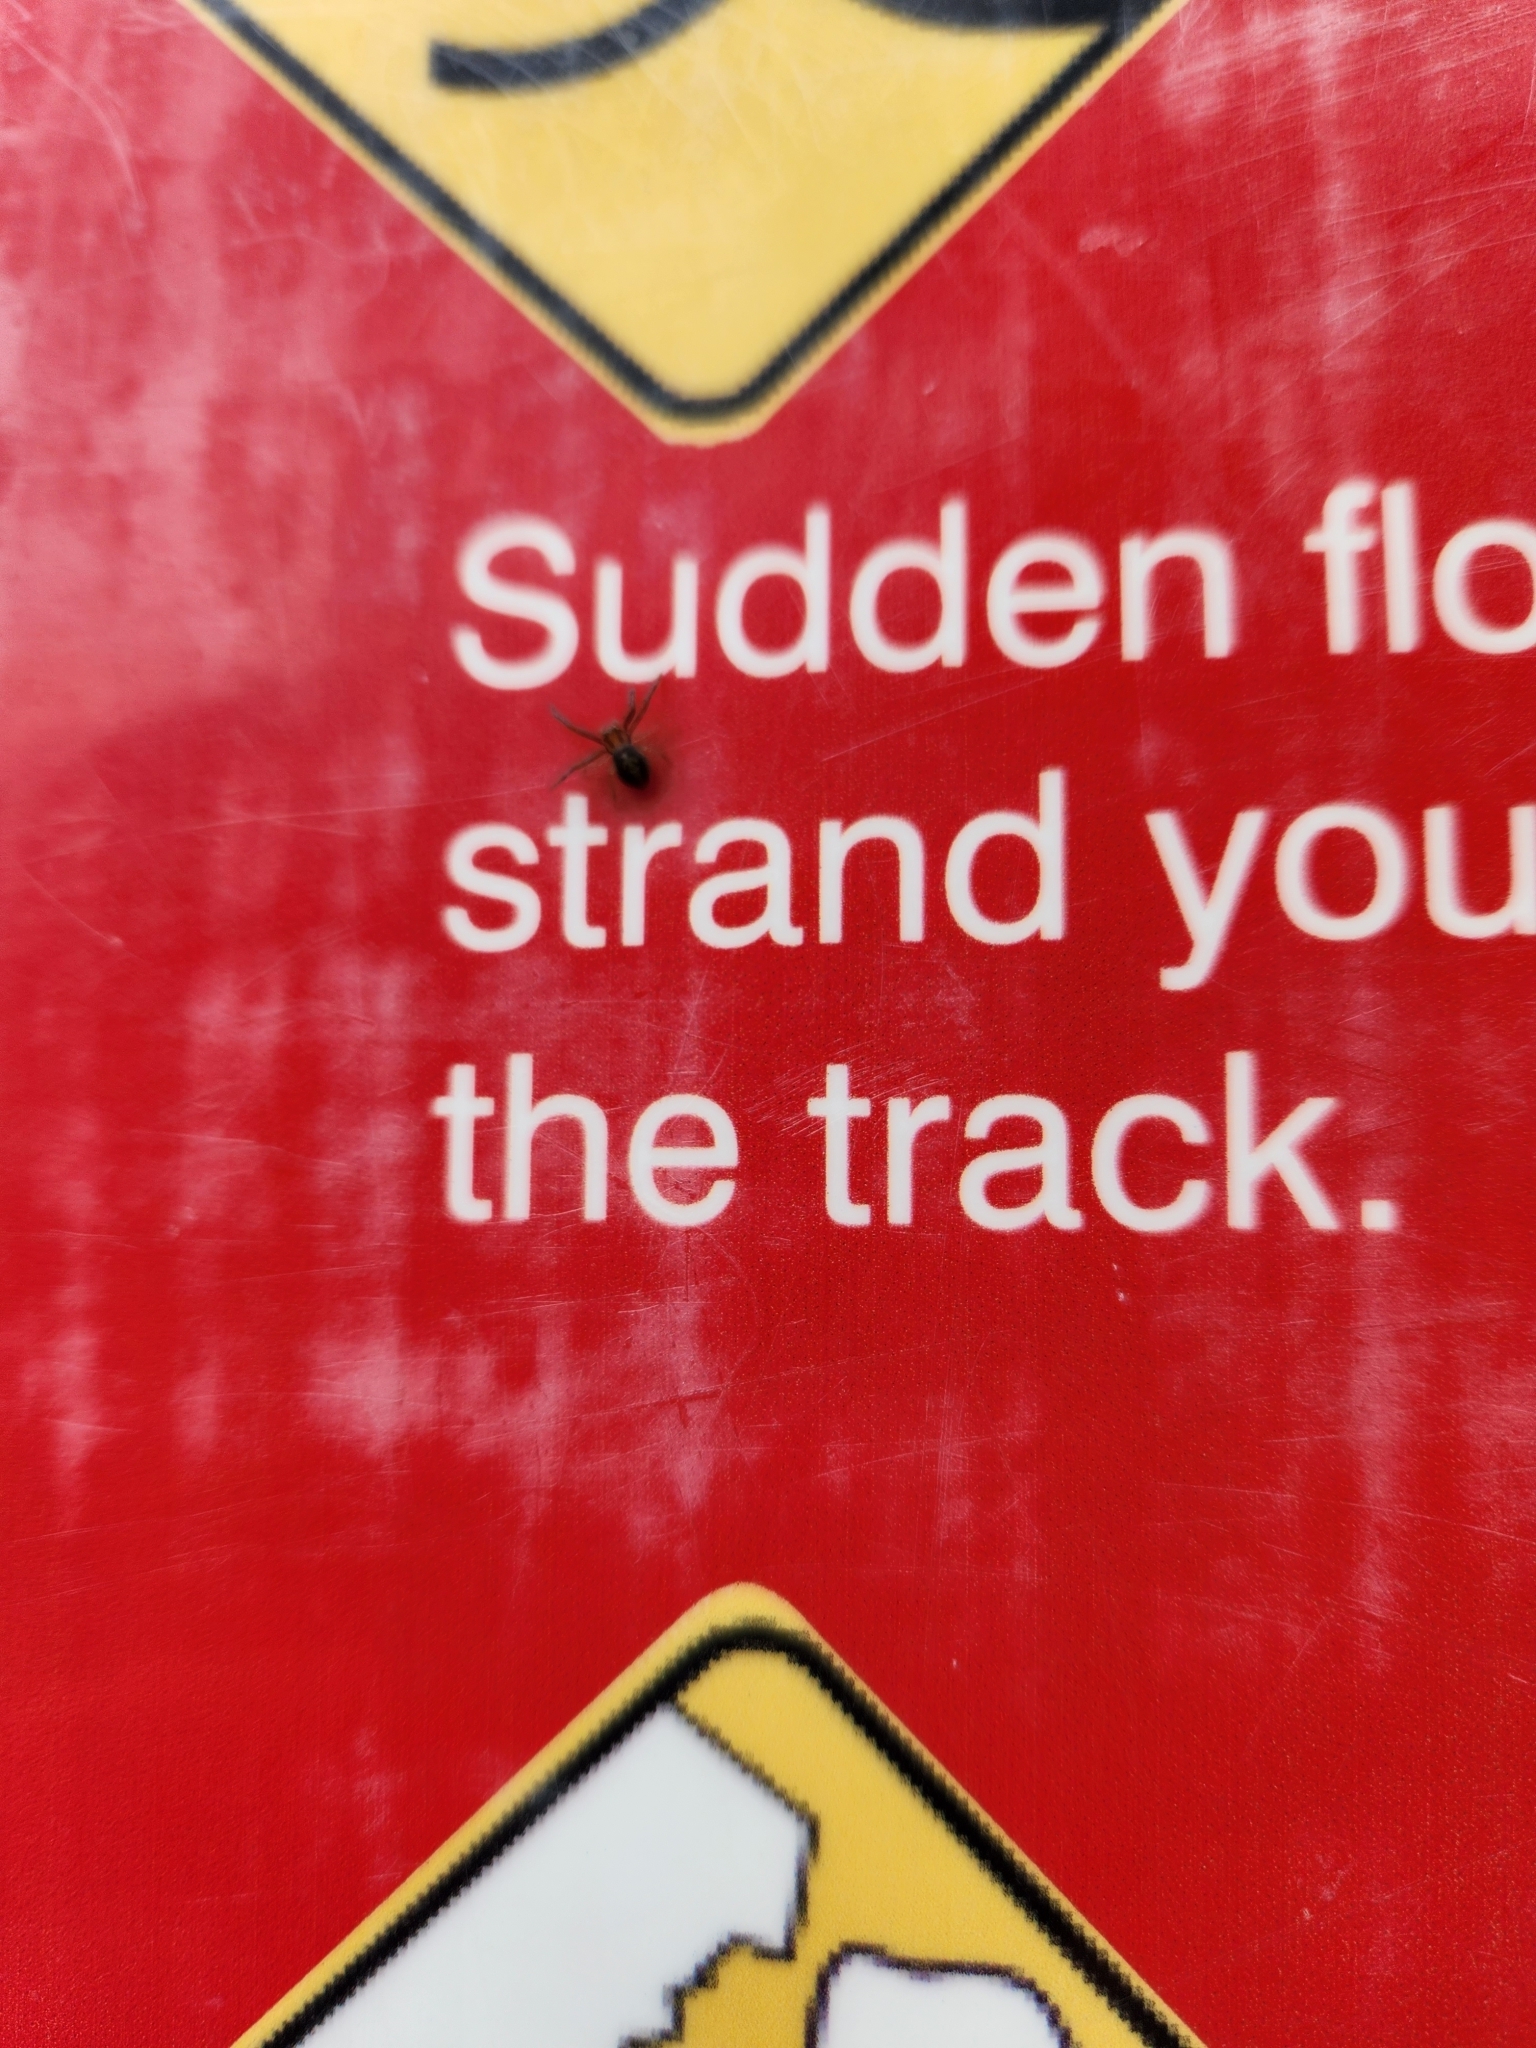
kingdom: Animalia
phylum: Arthropoda
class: Arachnida
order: Araneae
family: Thomisidae
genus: Diaea
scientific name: Diaea ambara
